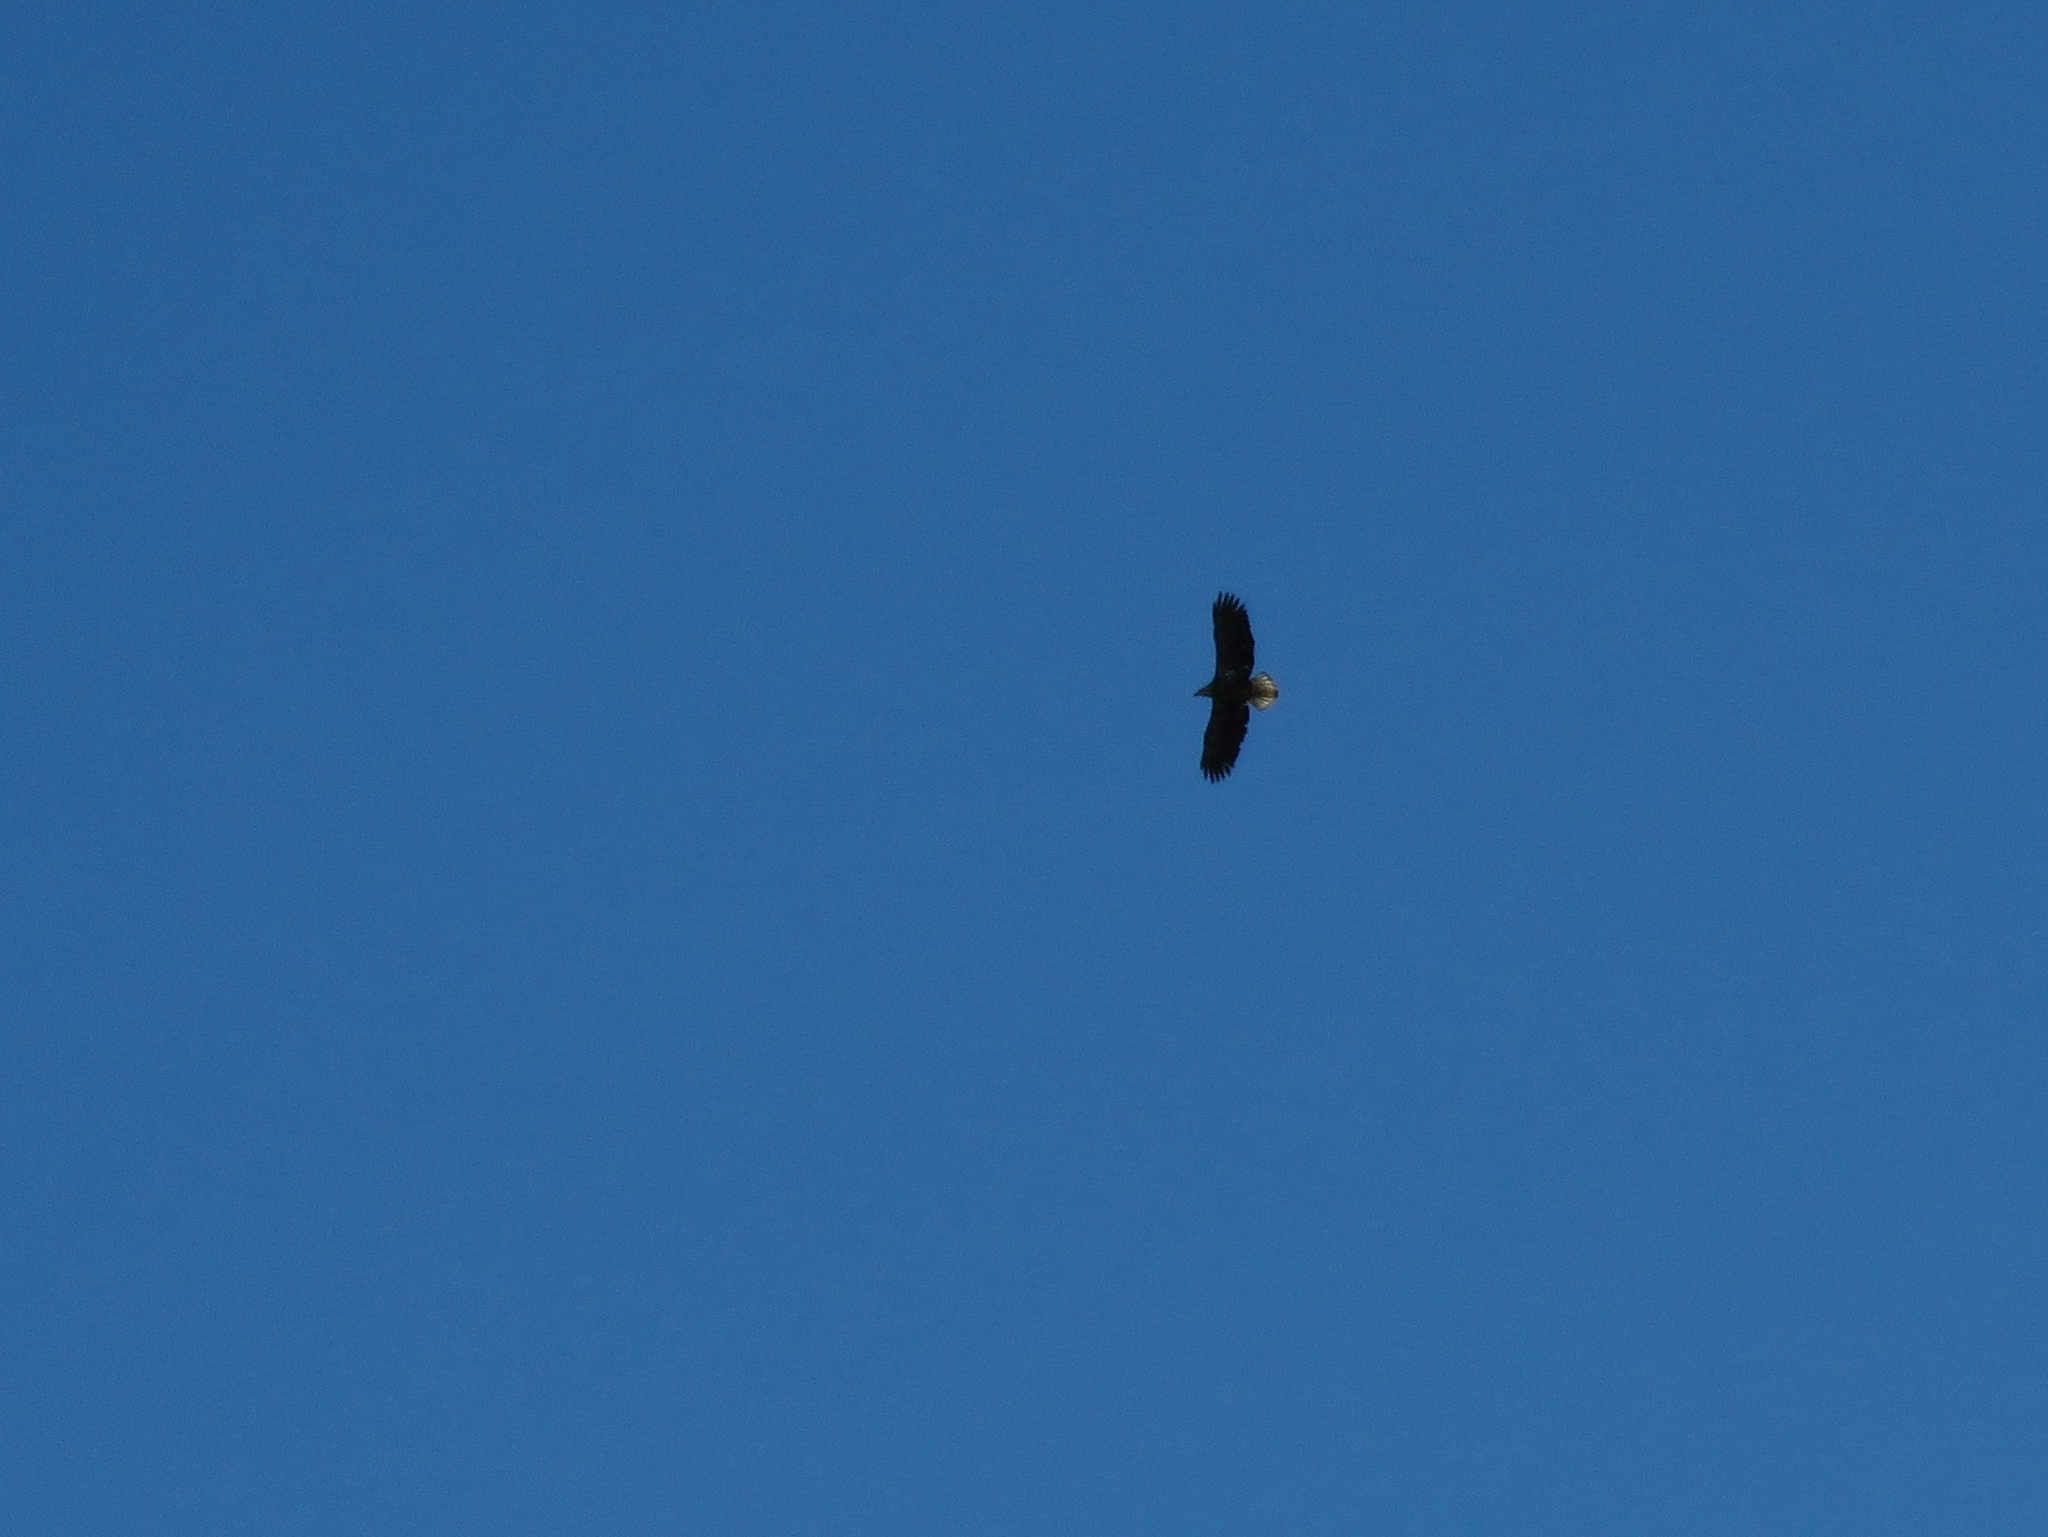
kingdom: Animalia
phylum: Chordata
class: Aves
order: Accipitriformes
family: Accipitridae
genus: Haliaeetus
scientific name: Haliaeetus leucocephalus
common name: Bald eagle
